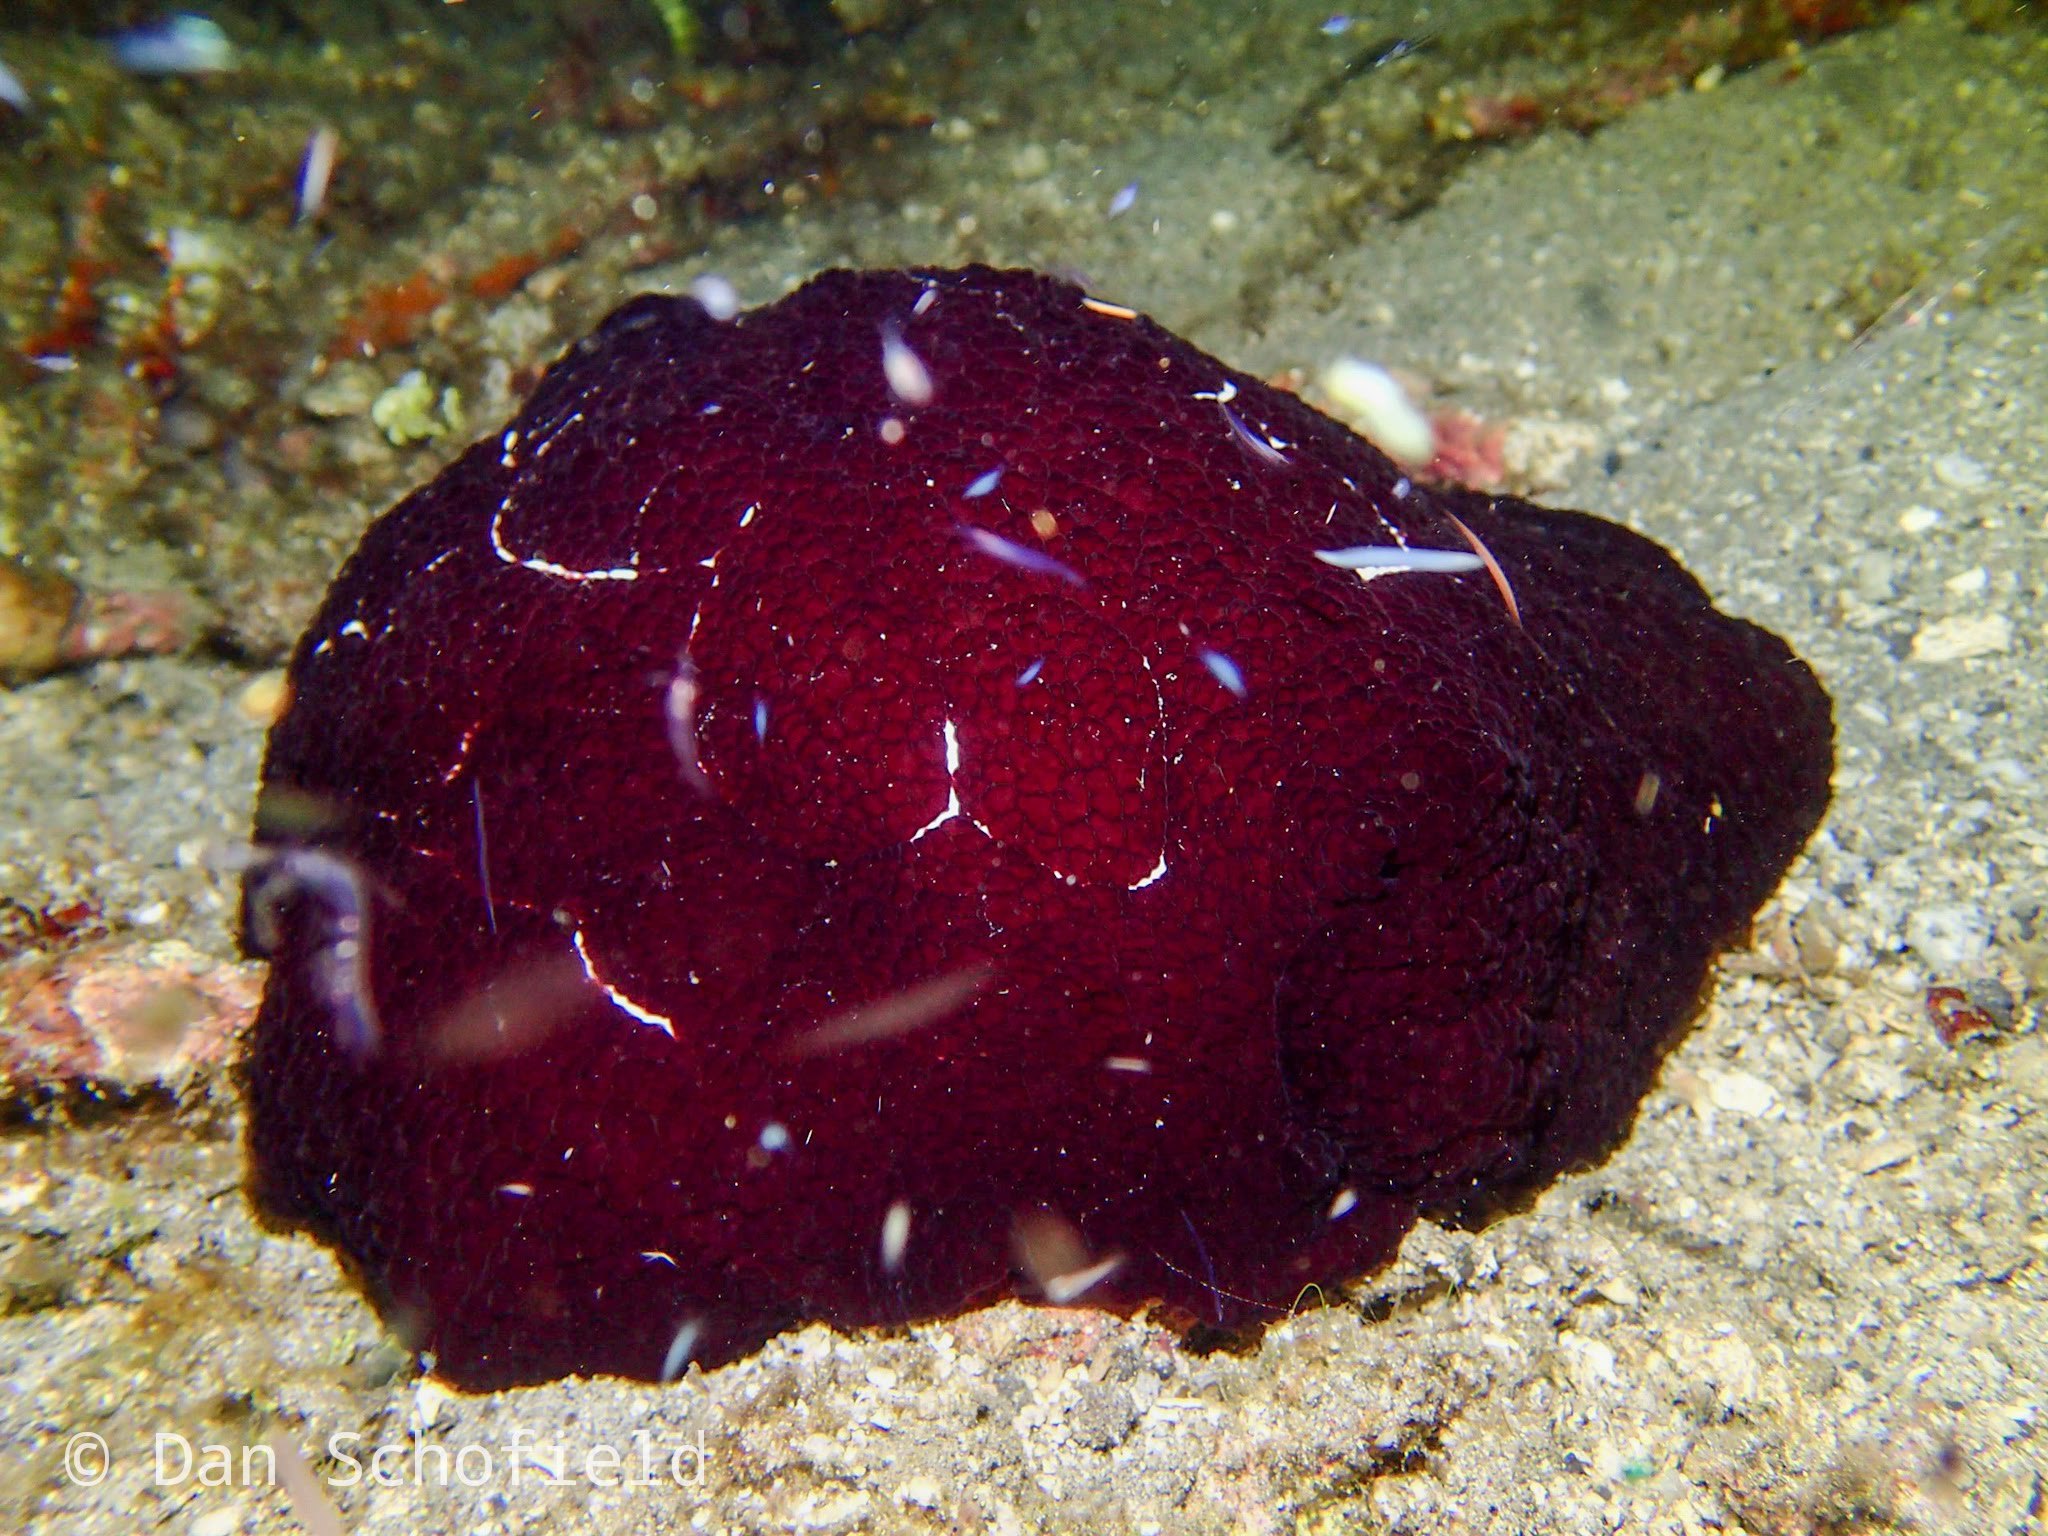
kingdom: Animalia
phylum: Mollusca
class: Gastropoda
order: Pleurobranchida
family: Pleurobranchidae
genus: Pleurobranchus
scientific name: Pleurobranchus forskalii
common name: Forskal's side-gilled sea slug
